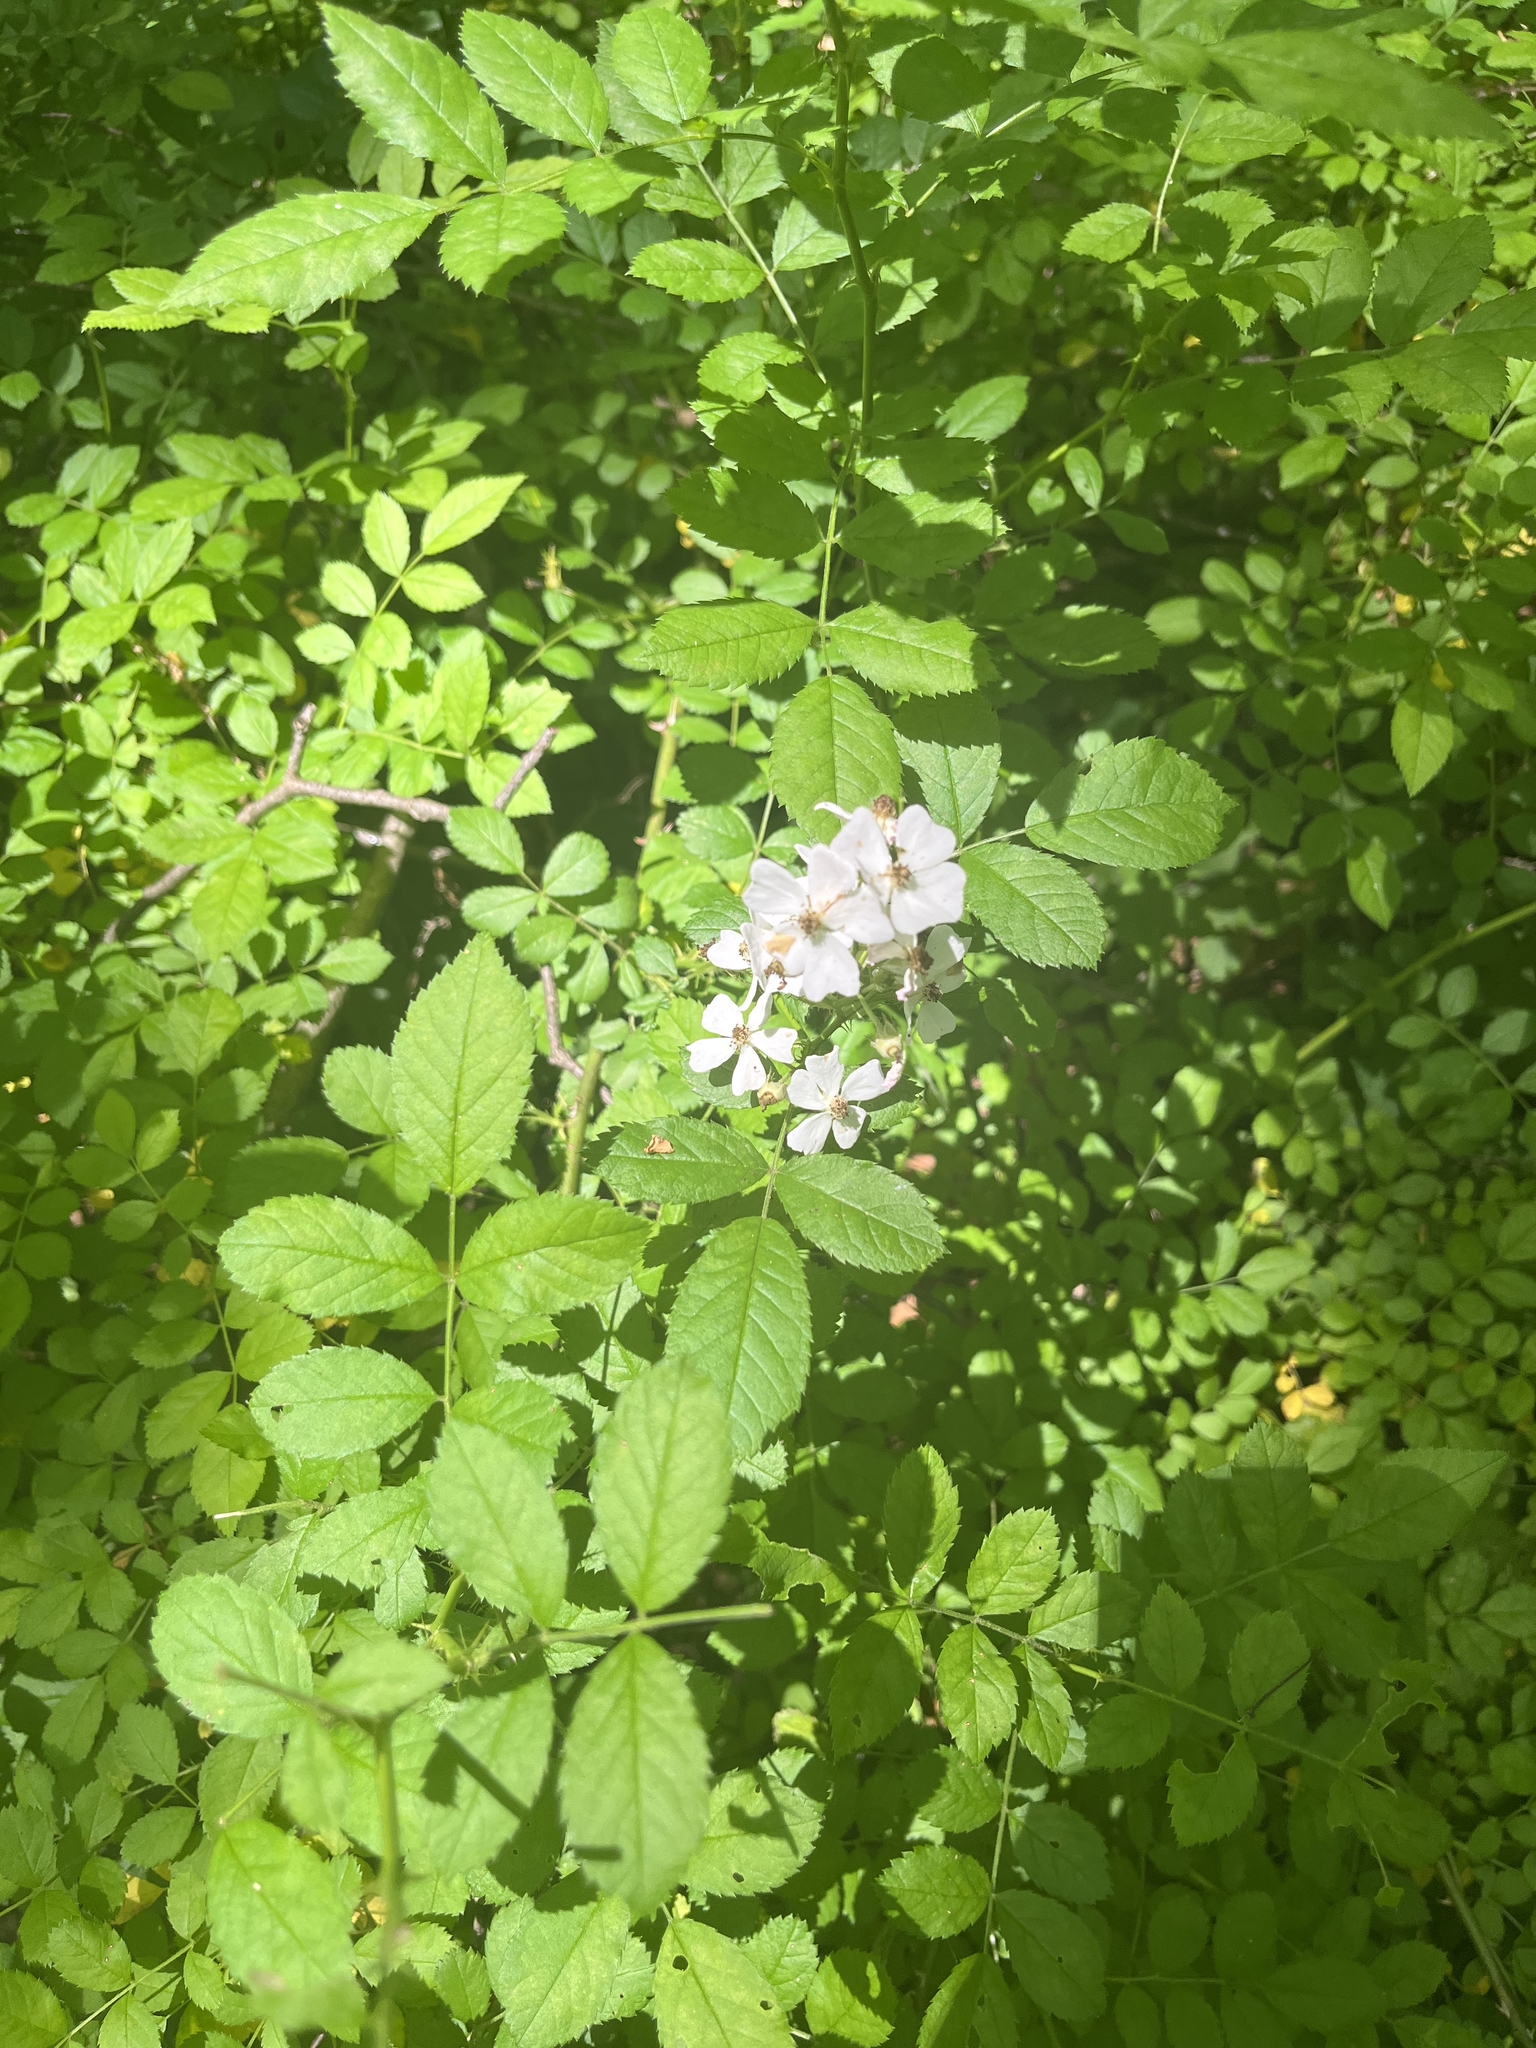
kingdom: Plantae
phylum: Tracheophyta
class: Magnoliopsida
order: Rosales
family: Rosaceae
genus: Rosa
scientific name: Rosa multiflora
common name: Multiflora rose
